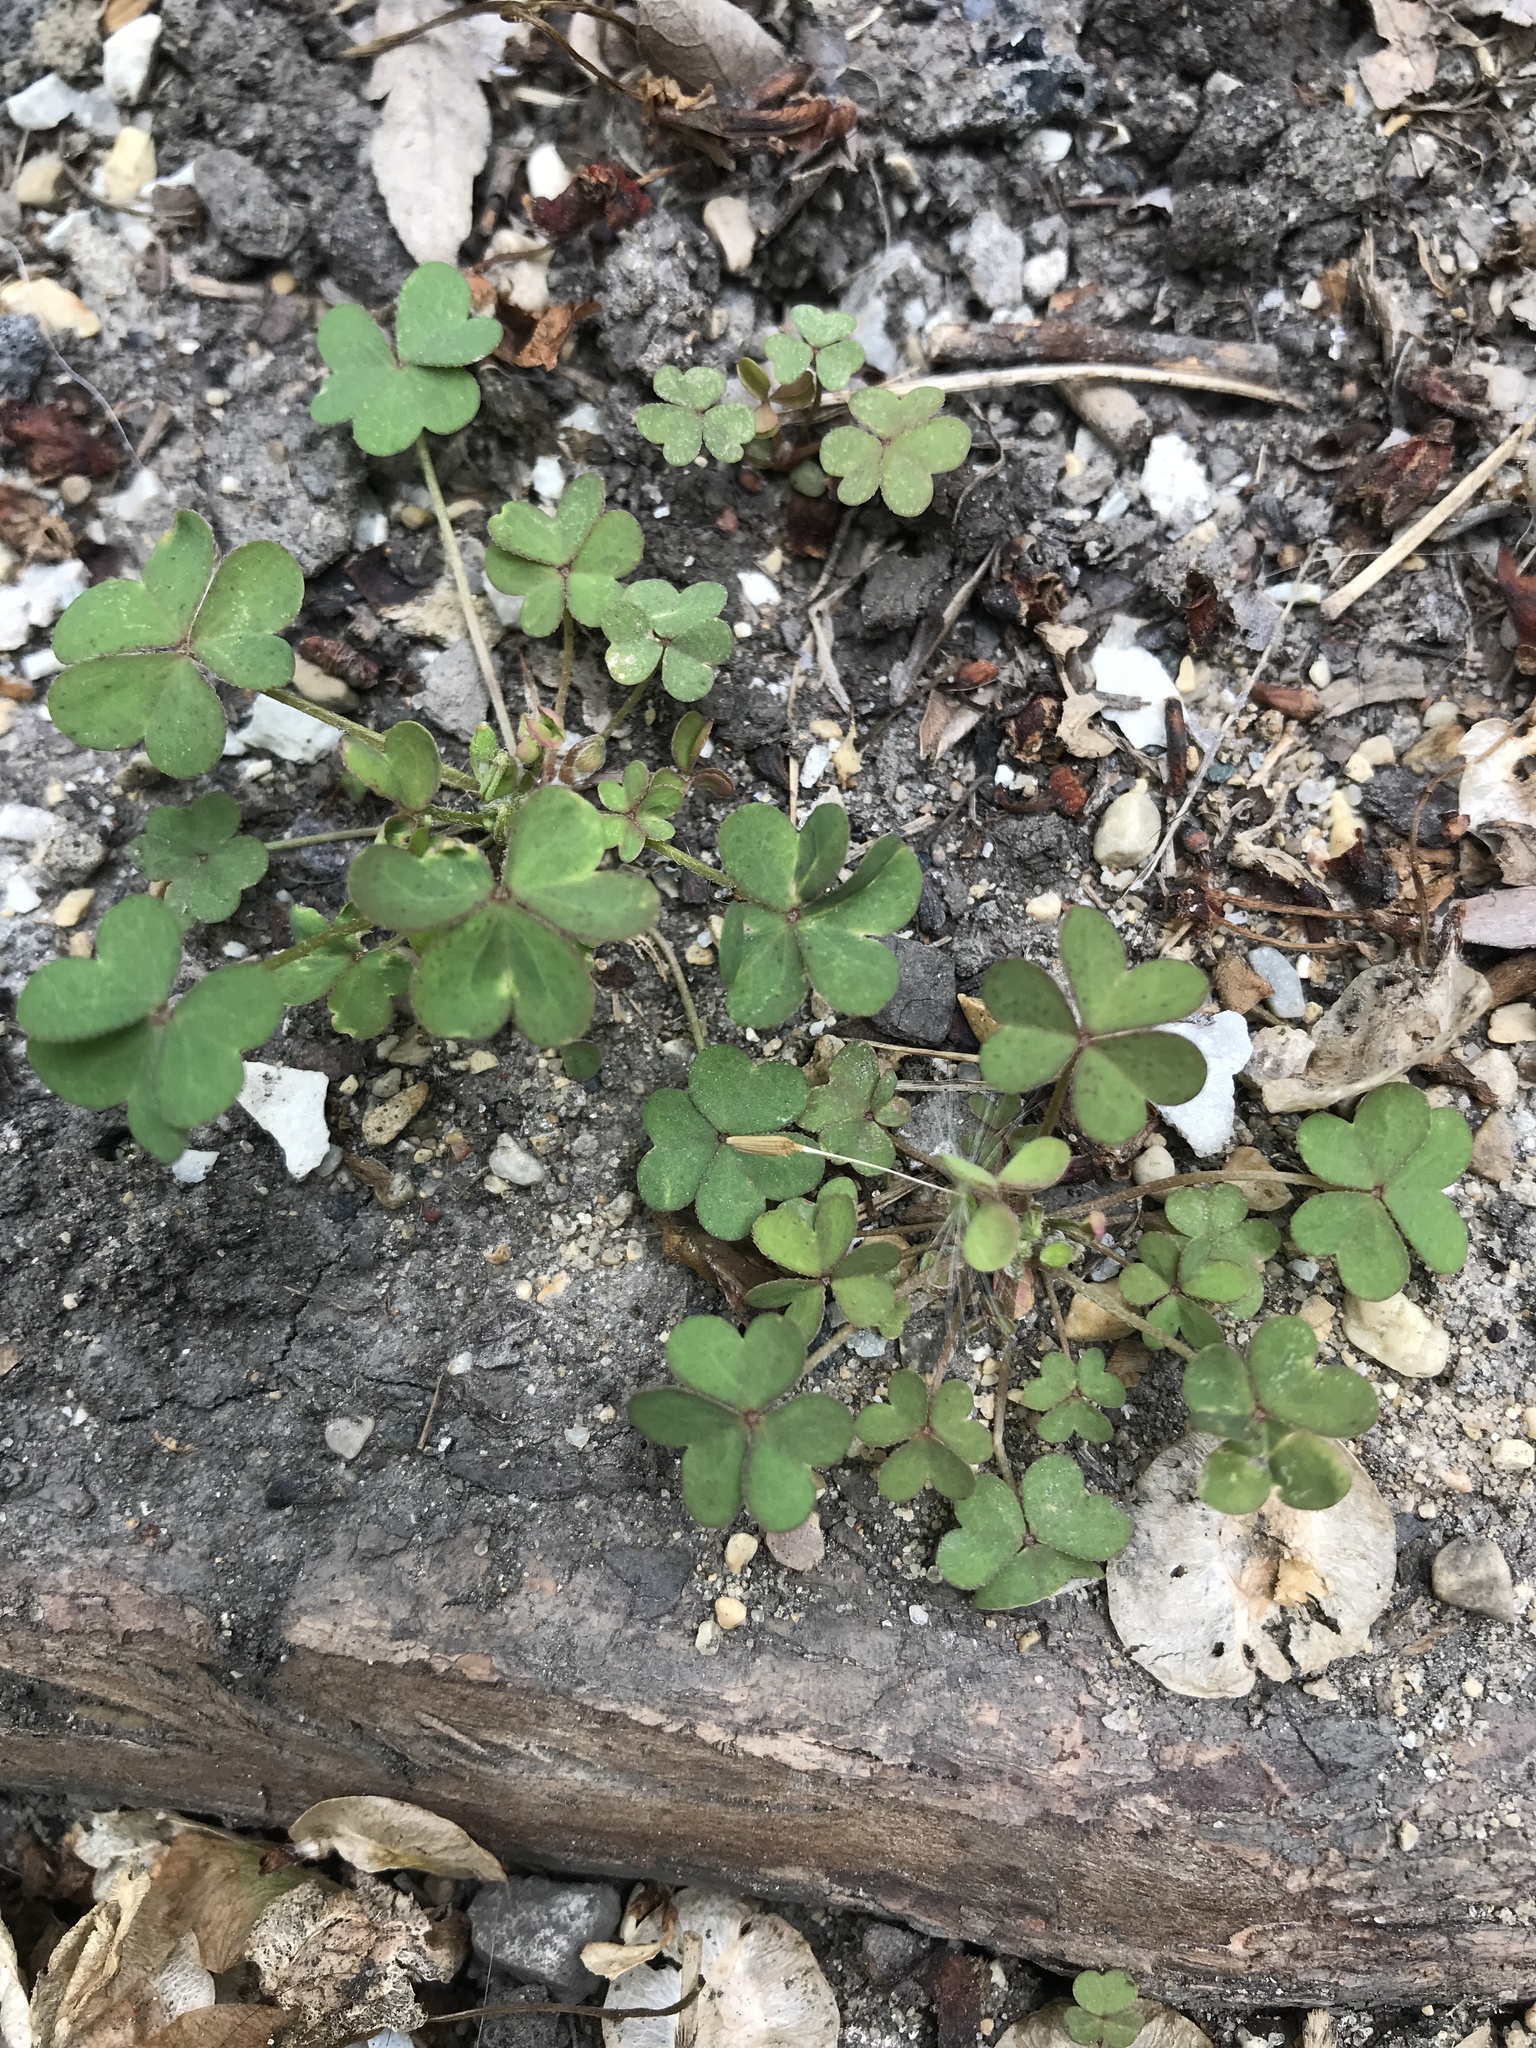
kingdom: Plantae
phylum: Tracheophyta
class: Magnoliopsida
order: Oxalidales
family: Oxalidaceae
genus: Oxalis
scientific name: Oxalis corniculata
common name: Procumbent yellow-sorrel
